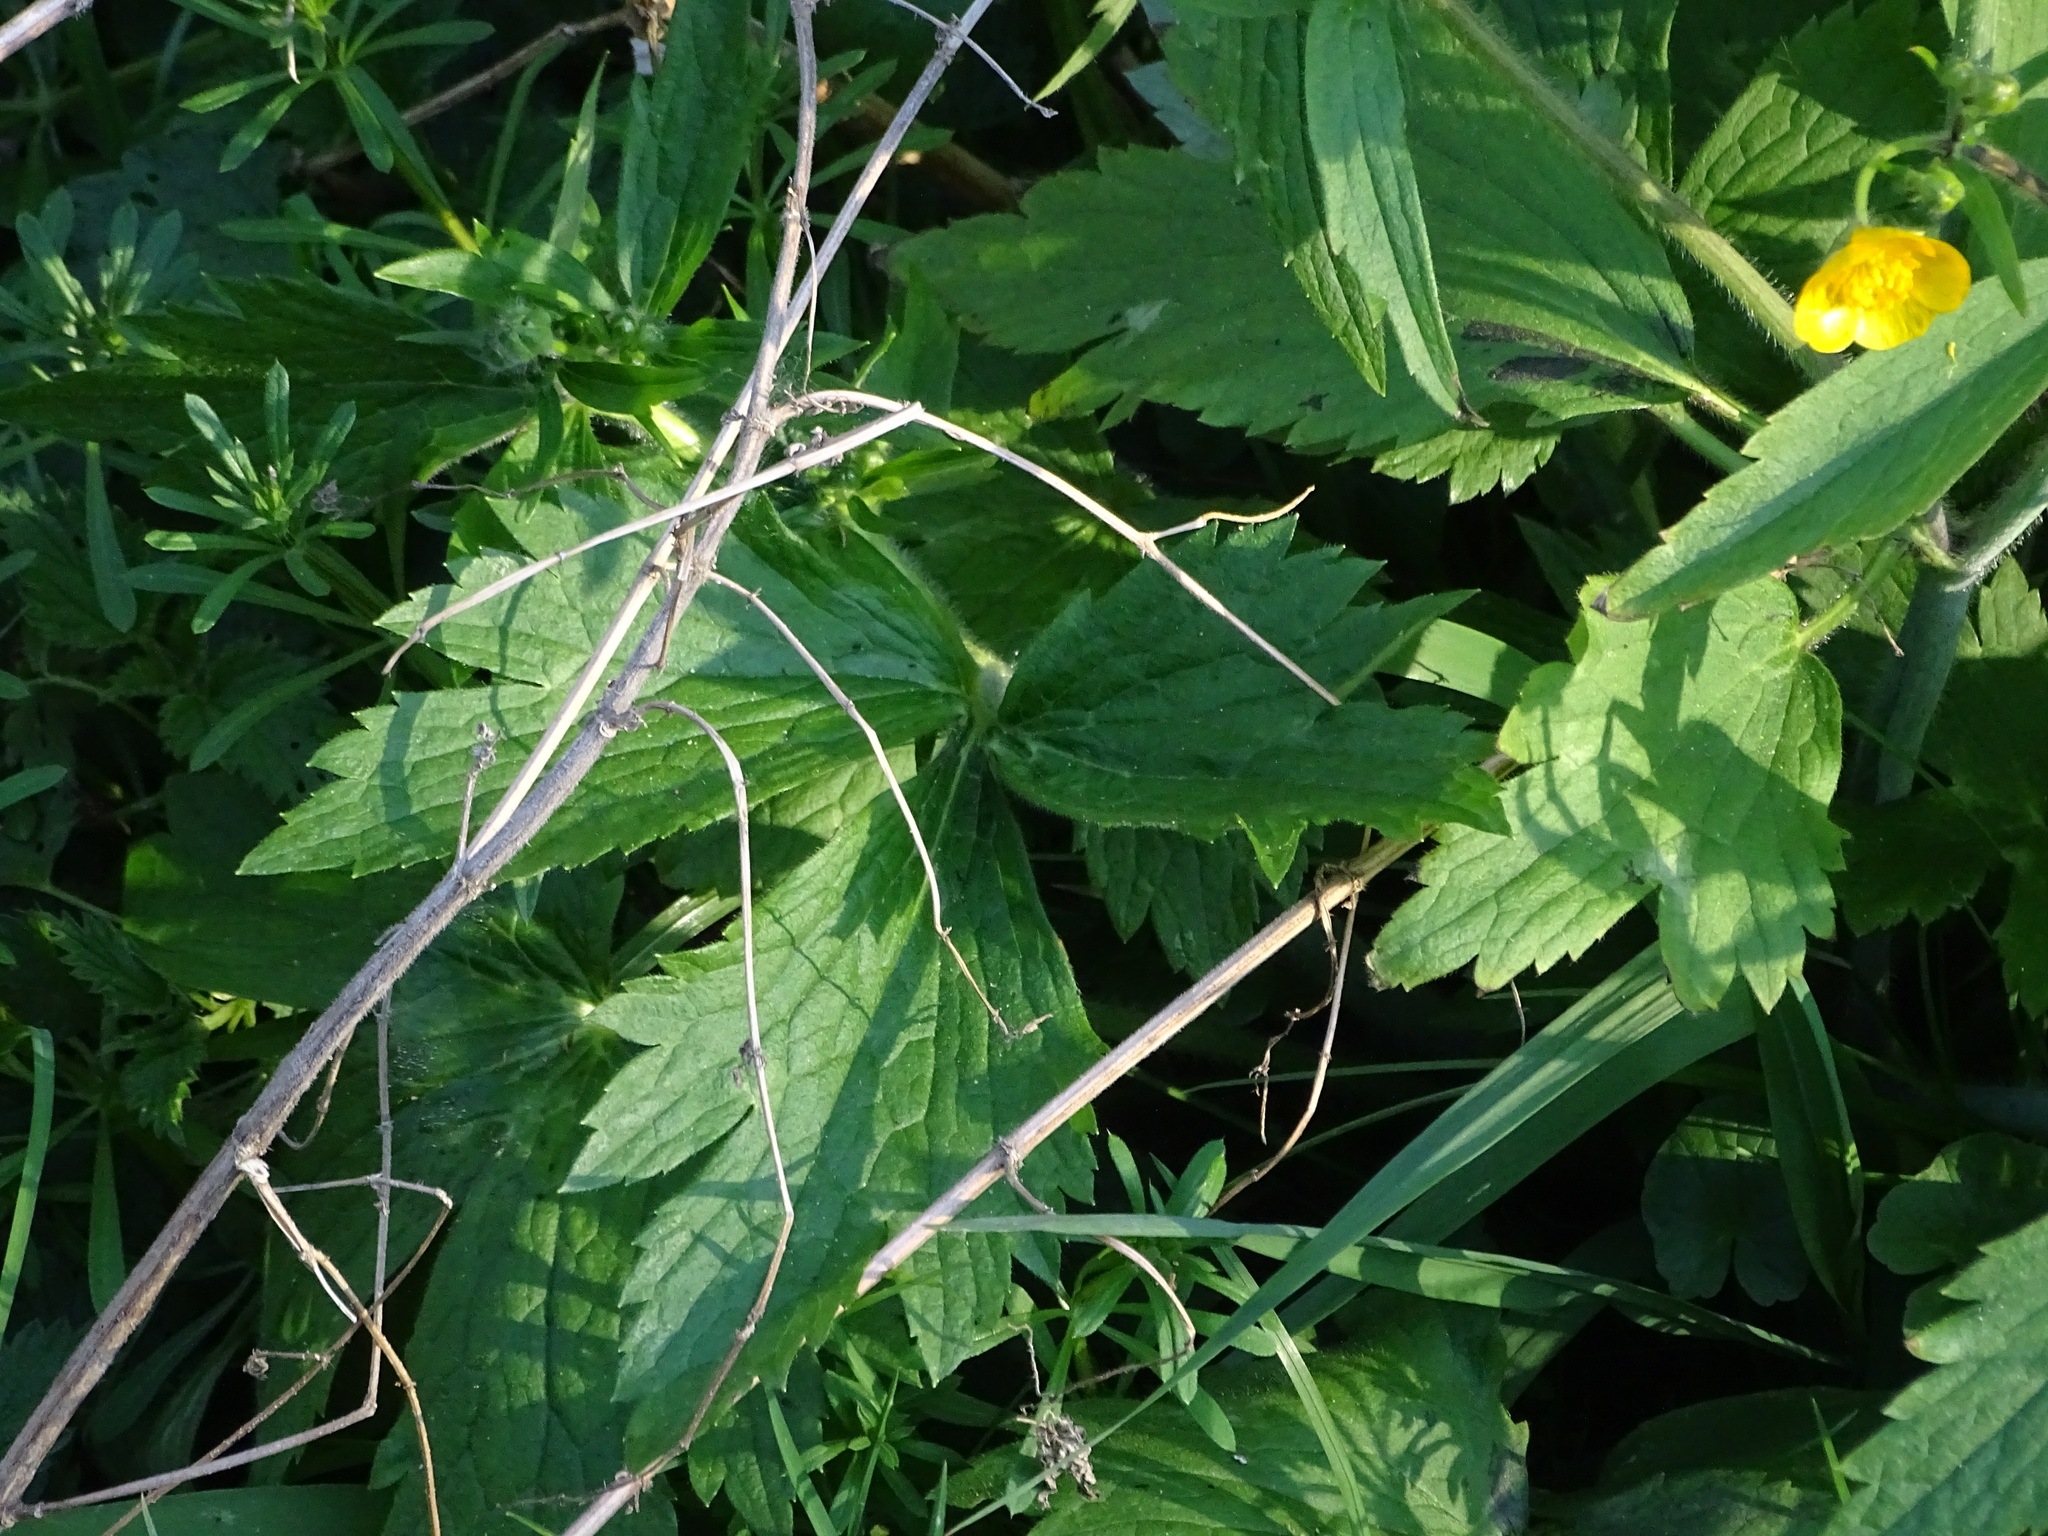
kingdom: Plantae
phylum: Tracheophyta
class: Magnoliopsida
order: Ranunculales
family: Ranunculaceae
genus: Ranunculus
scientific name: Ranunculus lanuginosus
